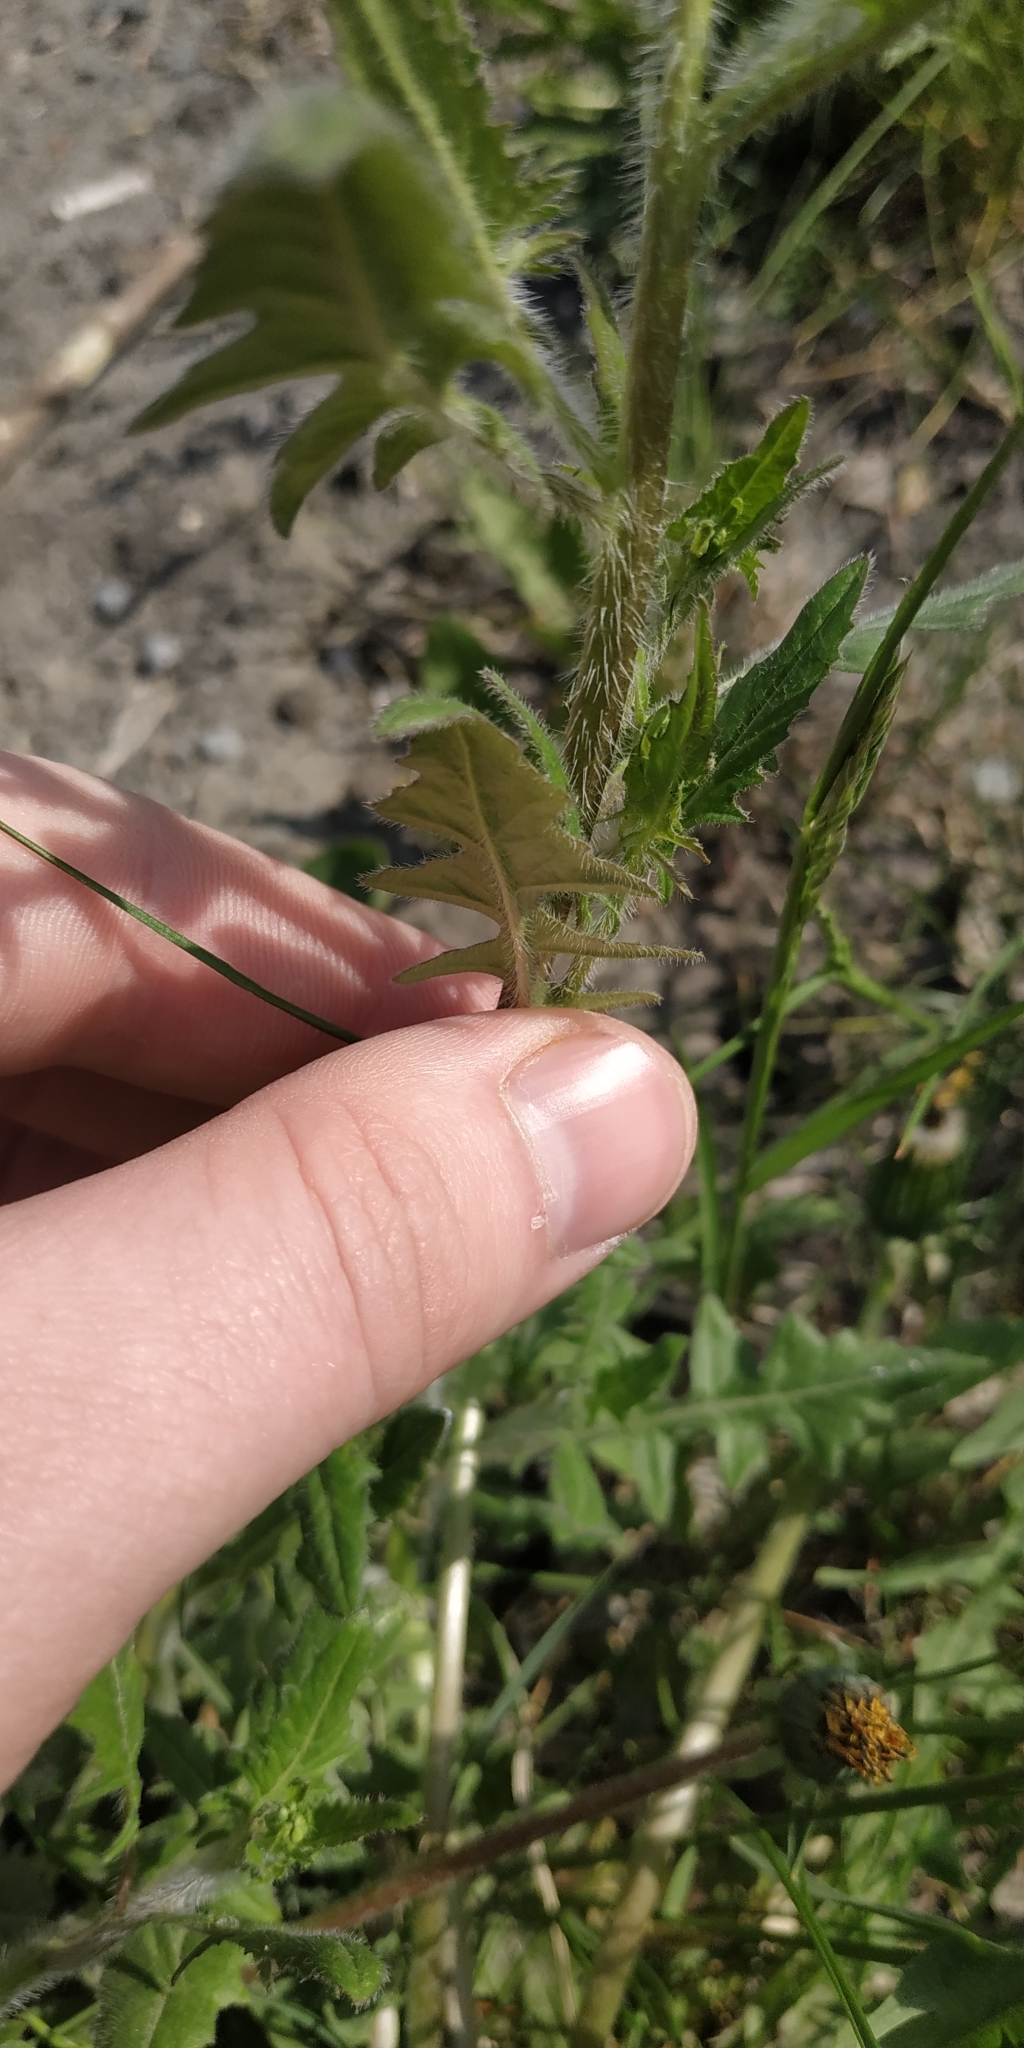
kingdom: Plantae
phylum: Tracheophyta
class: Magnoliopsida
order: Brassicales
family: Brassicaceae
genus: Sisymbrium
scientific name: Sisymbrium loeselii
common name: False london-rocket
